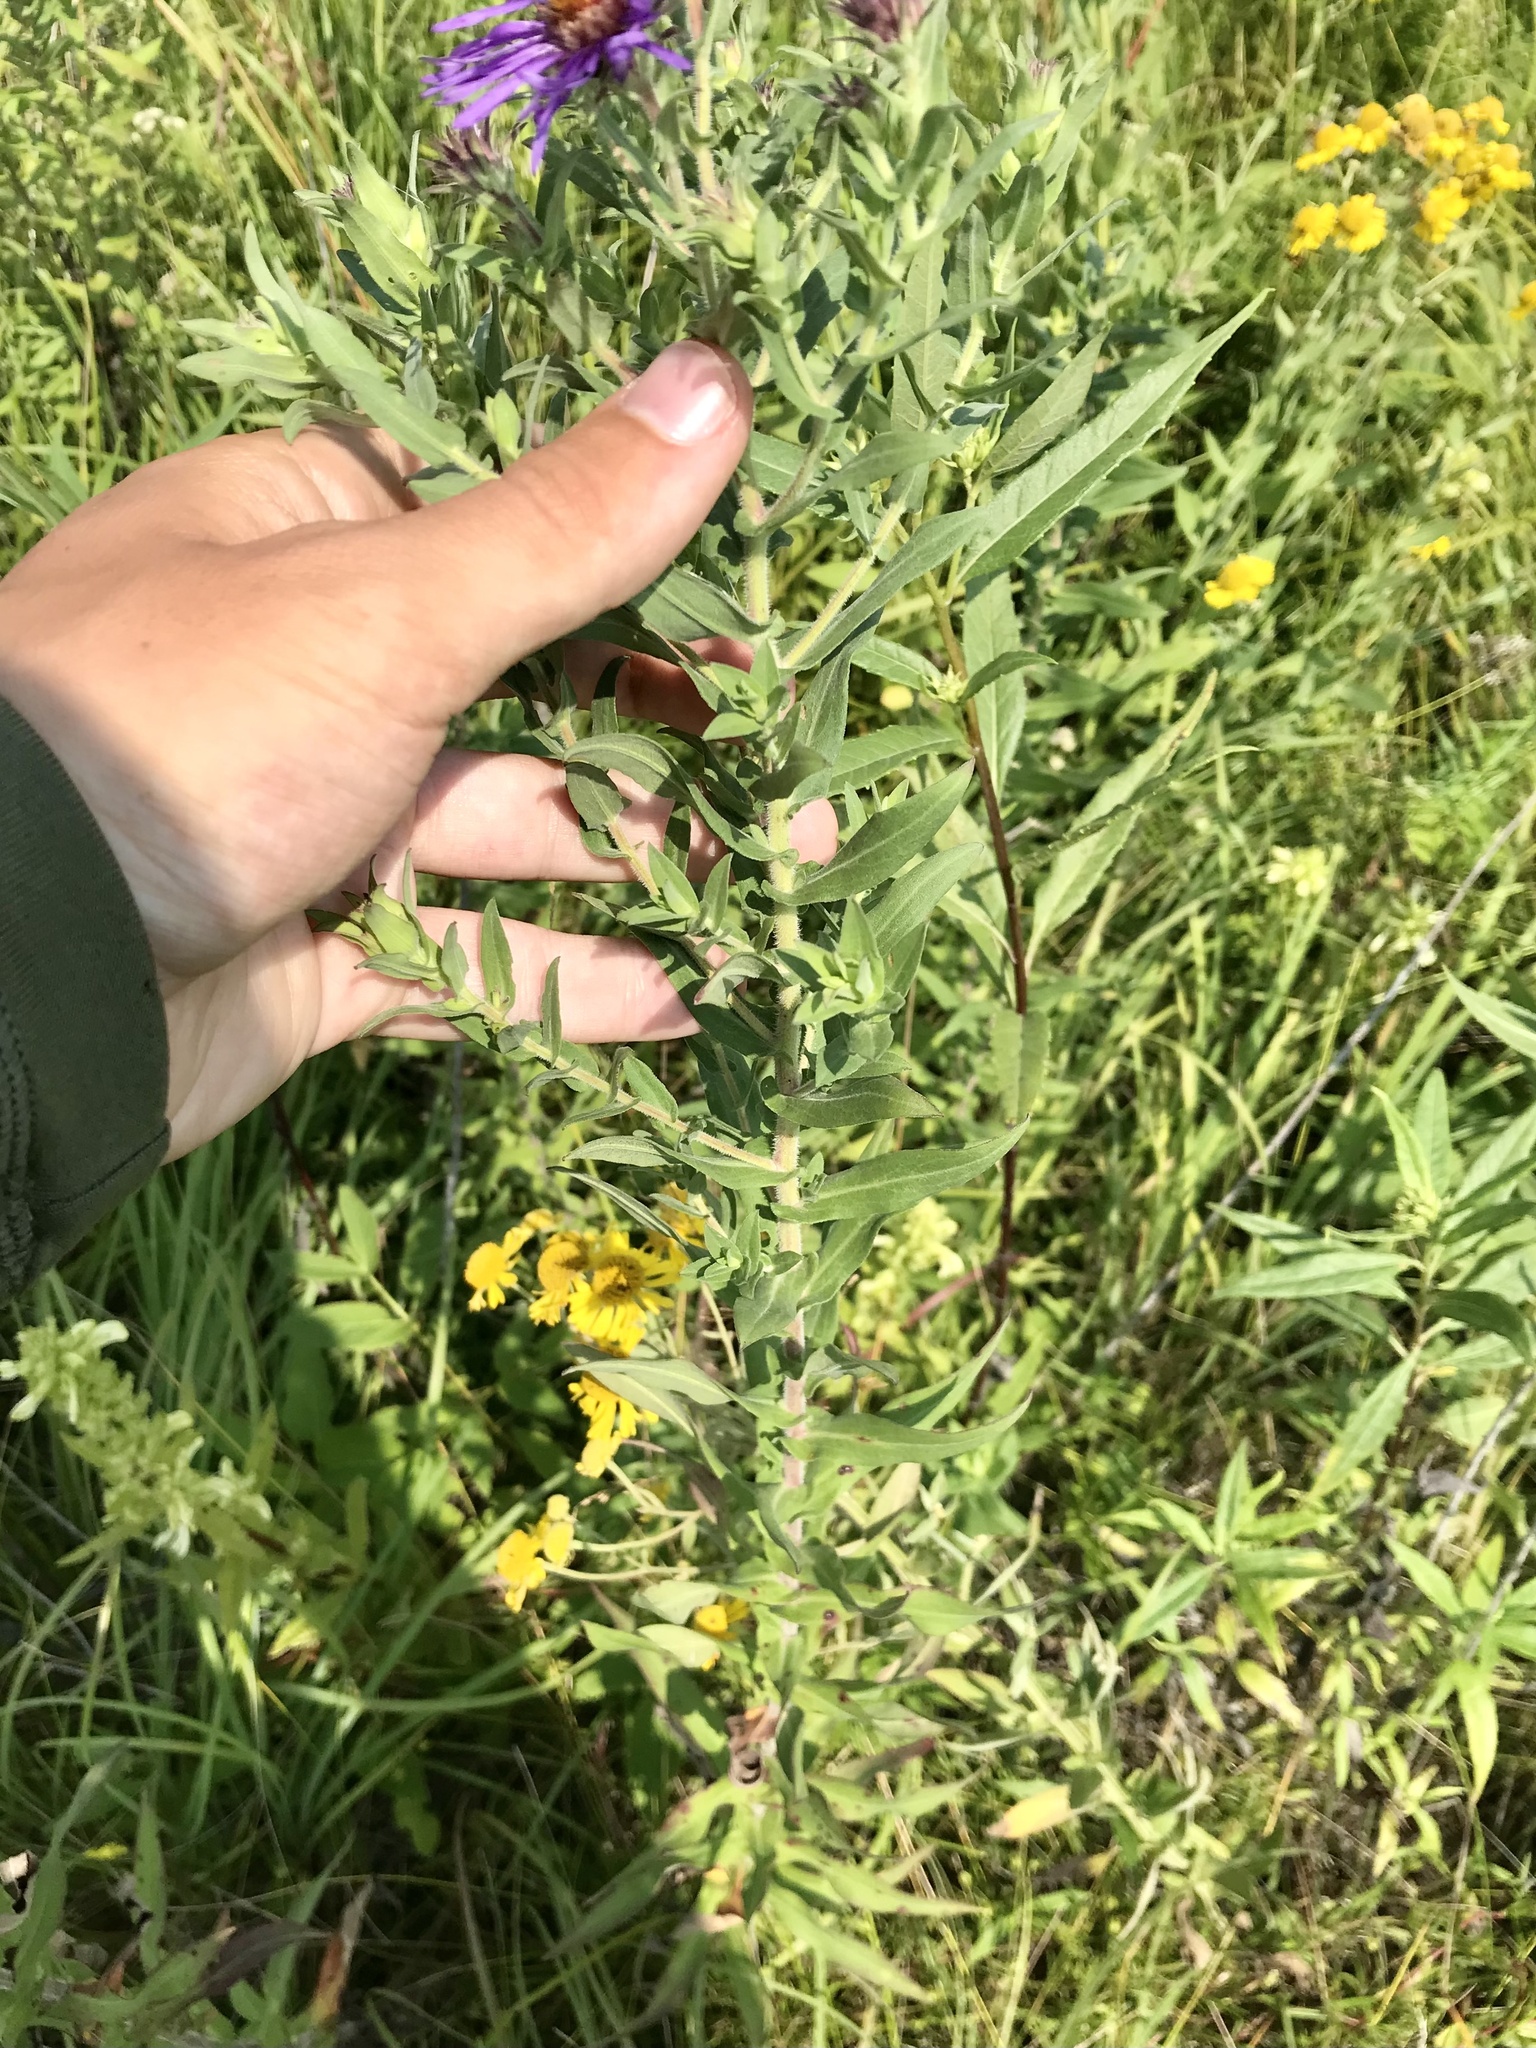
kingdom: Plantae
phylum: Tracheophyta
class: Magnoliopsida
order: Asterales
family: Asteraceae
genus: Symphyotrichum
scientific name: Symphyotrichum novae-angliae
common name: Michaelmas daisy
